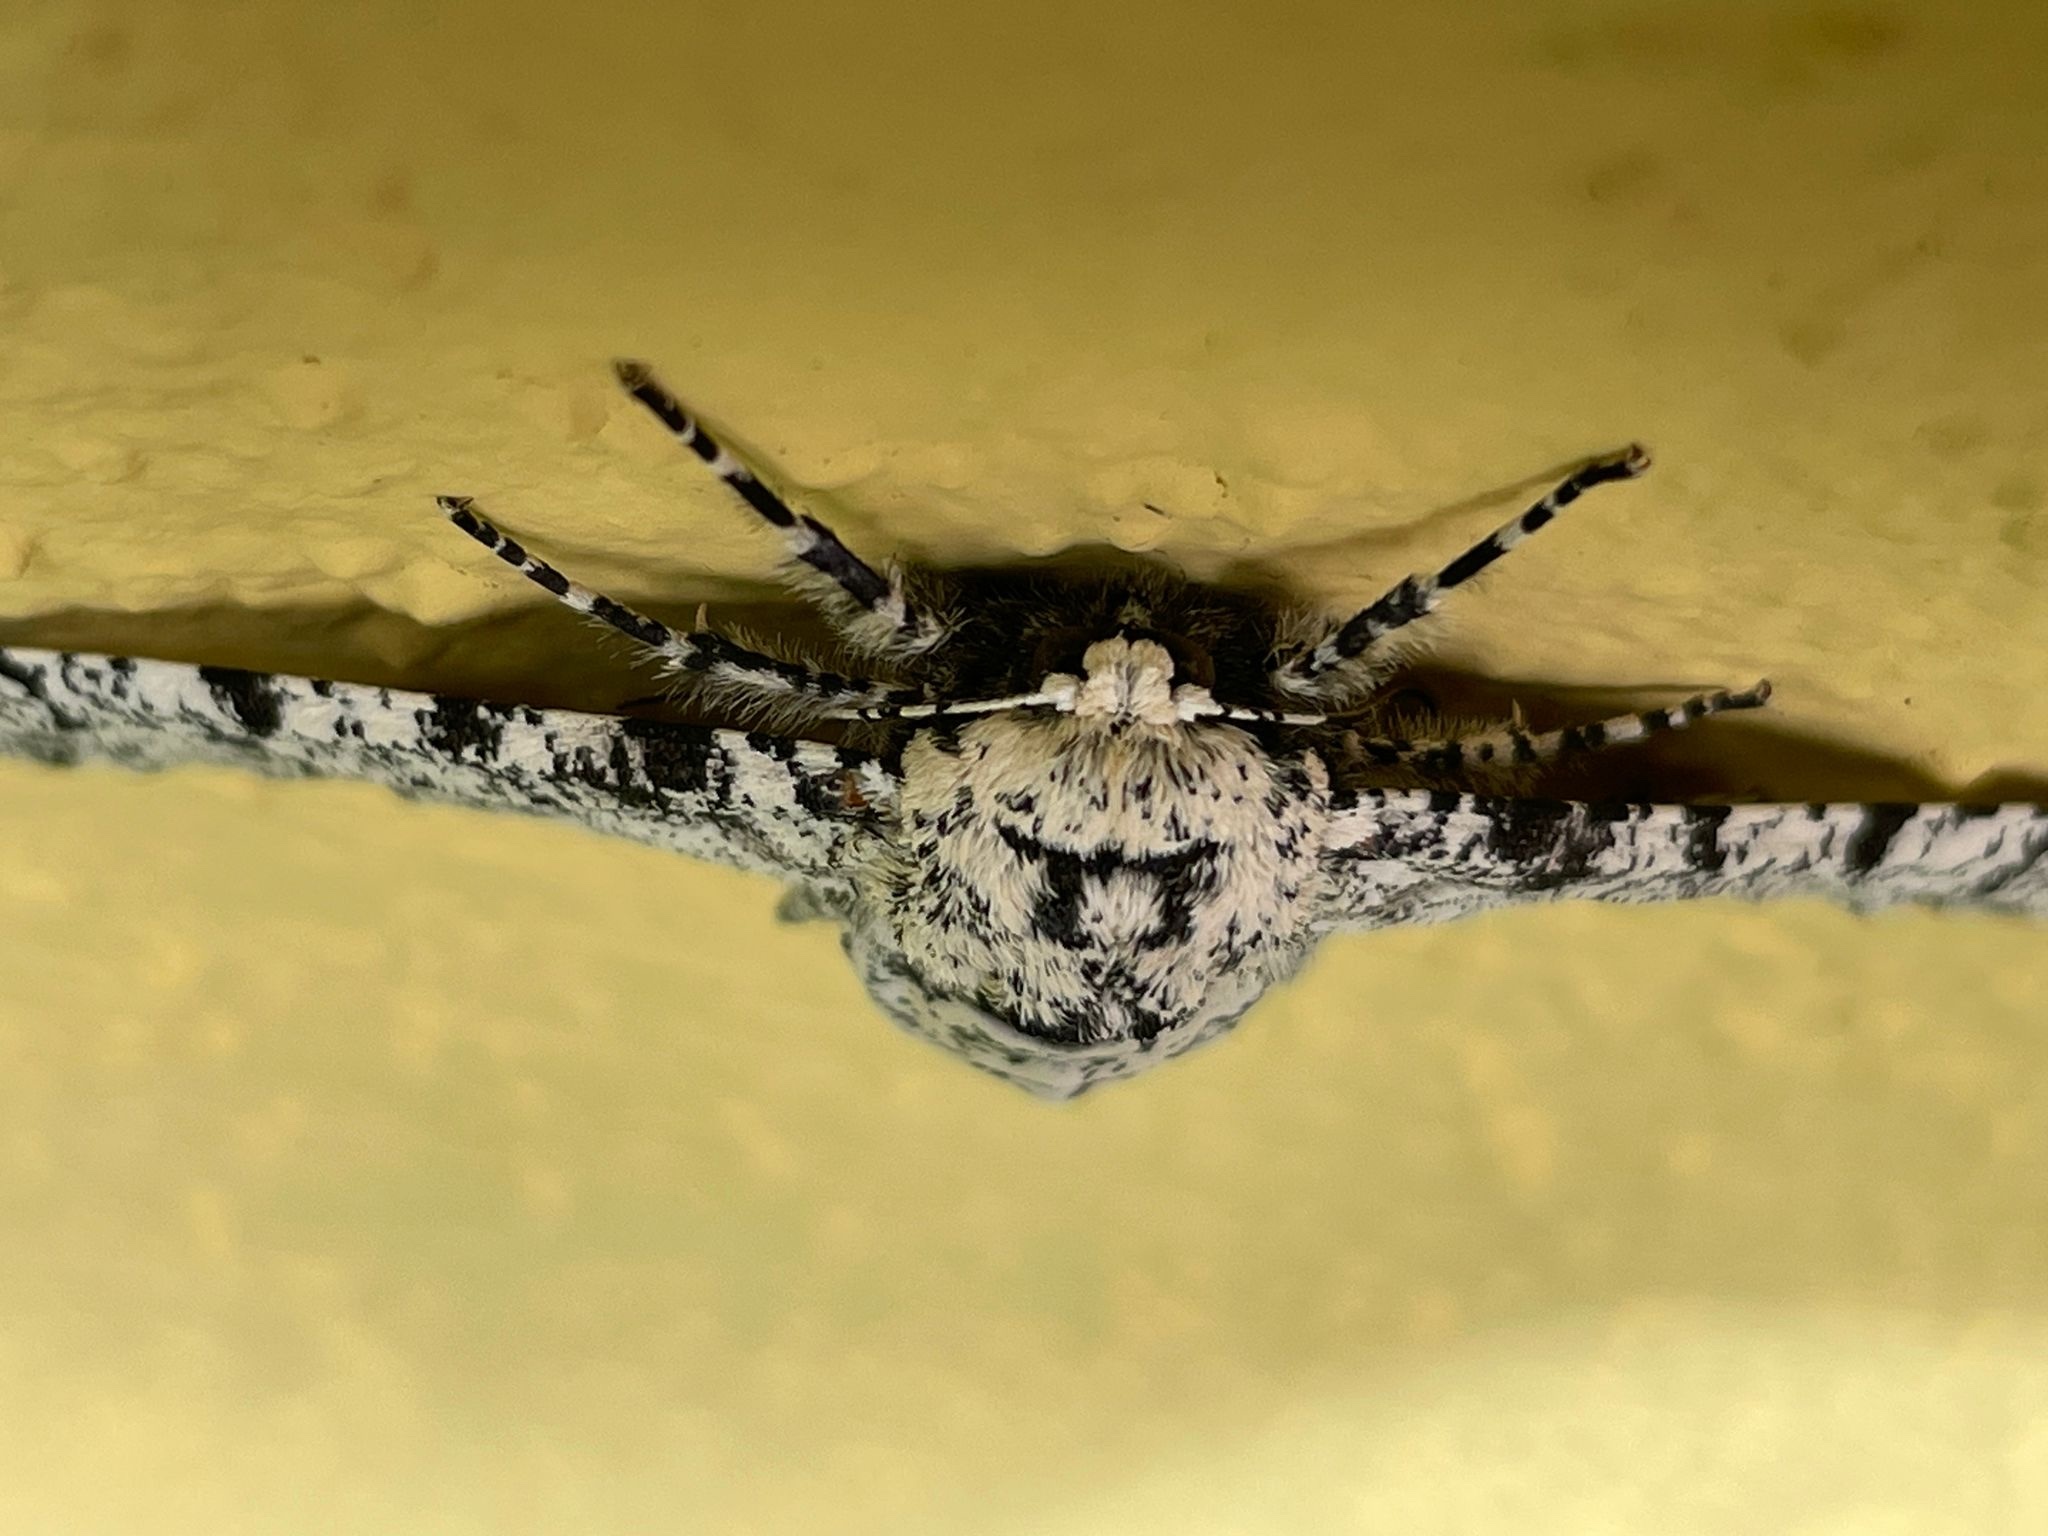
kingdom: Animalia
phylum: Arthropoda
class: Insecta
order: Lepidoptera
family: Geometridae
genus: Biston
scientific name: Biston betularia
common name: Peppered moth
